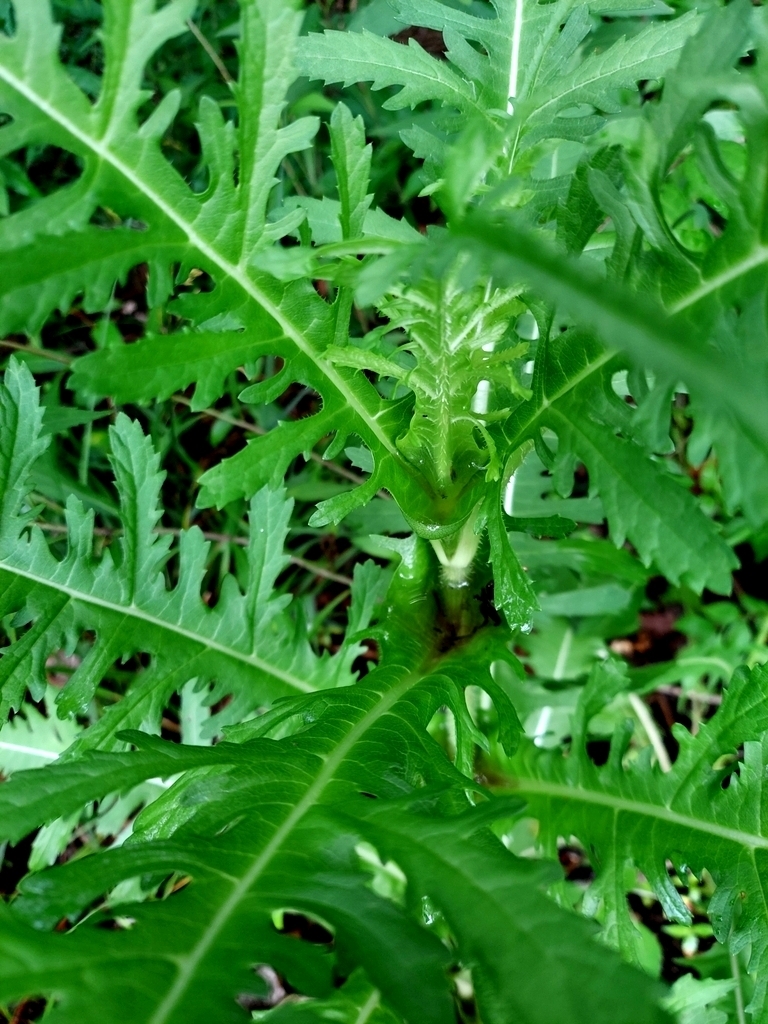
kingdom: Plantae
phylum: Tracheophyta
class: Magnoliopsida
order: Dipsacales
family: Caprifoliaceae
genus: Dipsacus
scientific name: Dipsacus laciniatus
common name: Cut-leaved teasel
